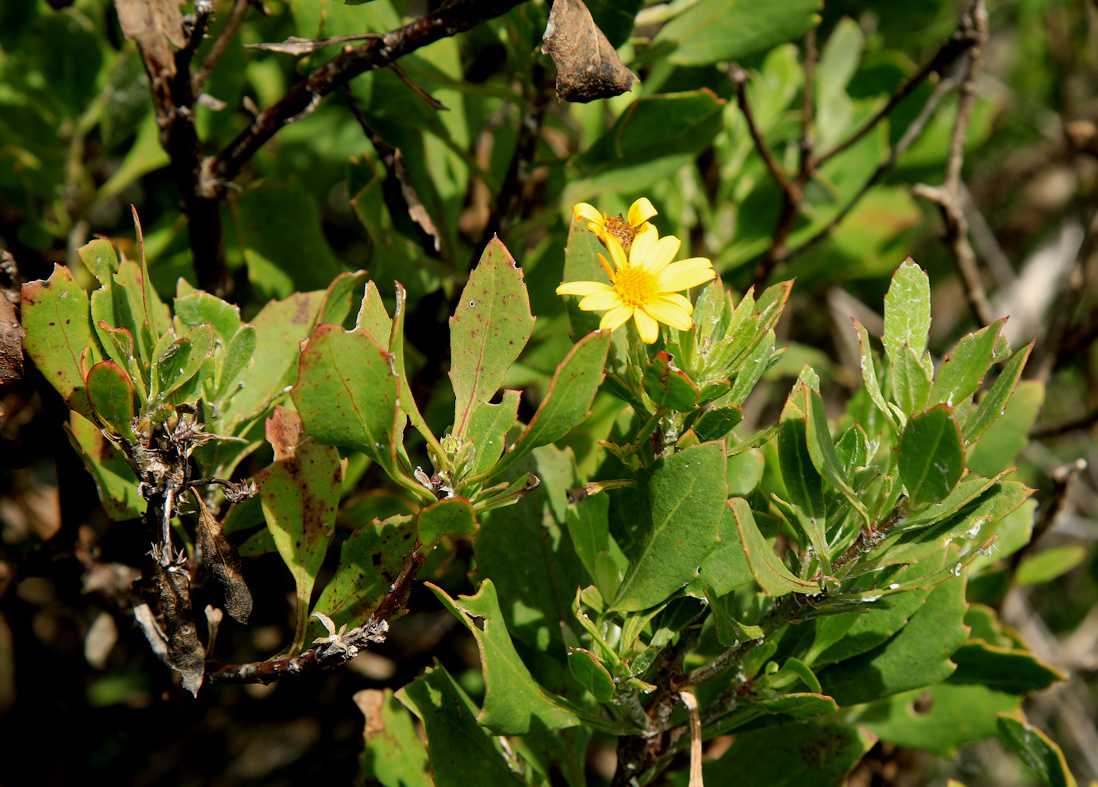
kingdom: Plantae
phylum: Tracheophyta
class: Magnoliopsida
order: Asterales
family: Asteraceae
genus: Osteospermum
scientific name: Osteospermum moniliferum
